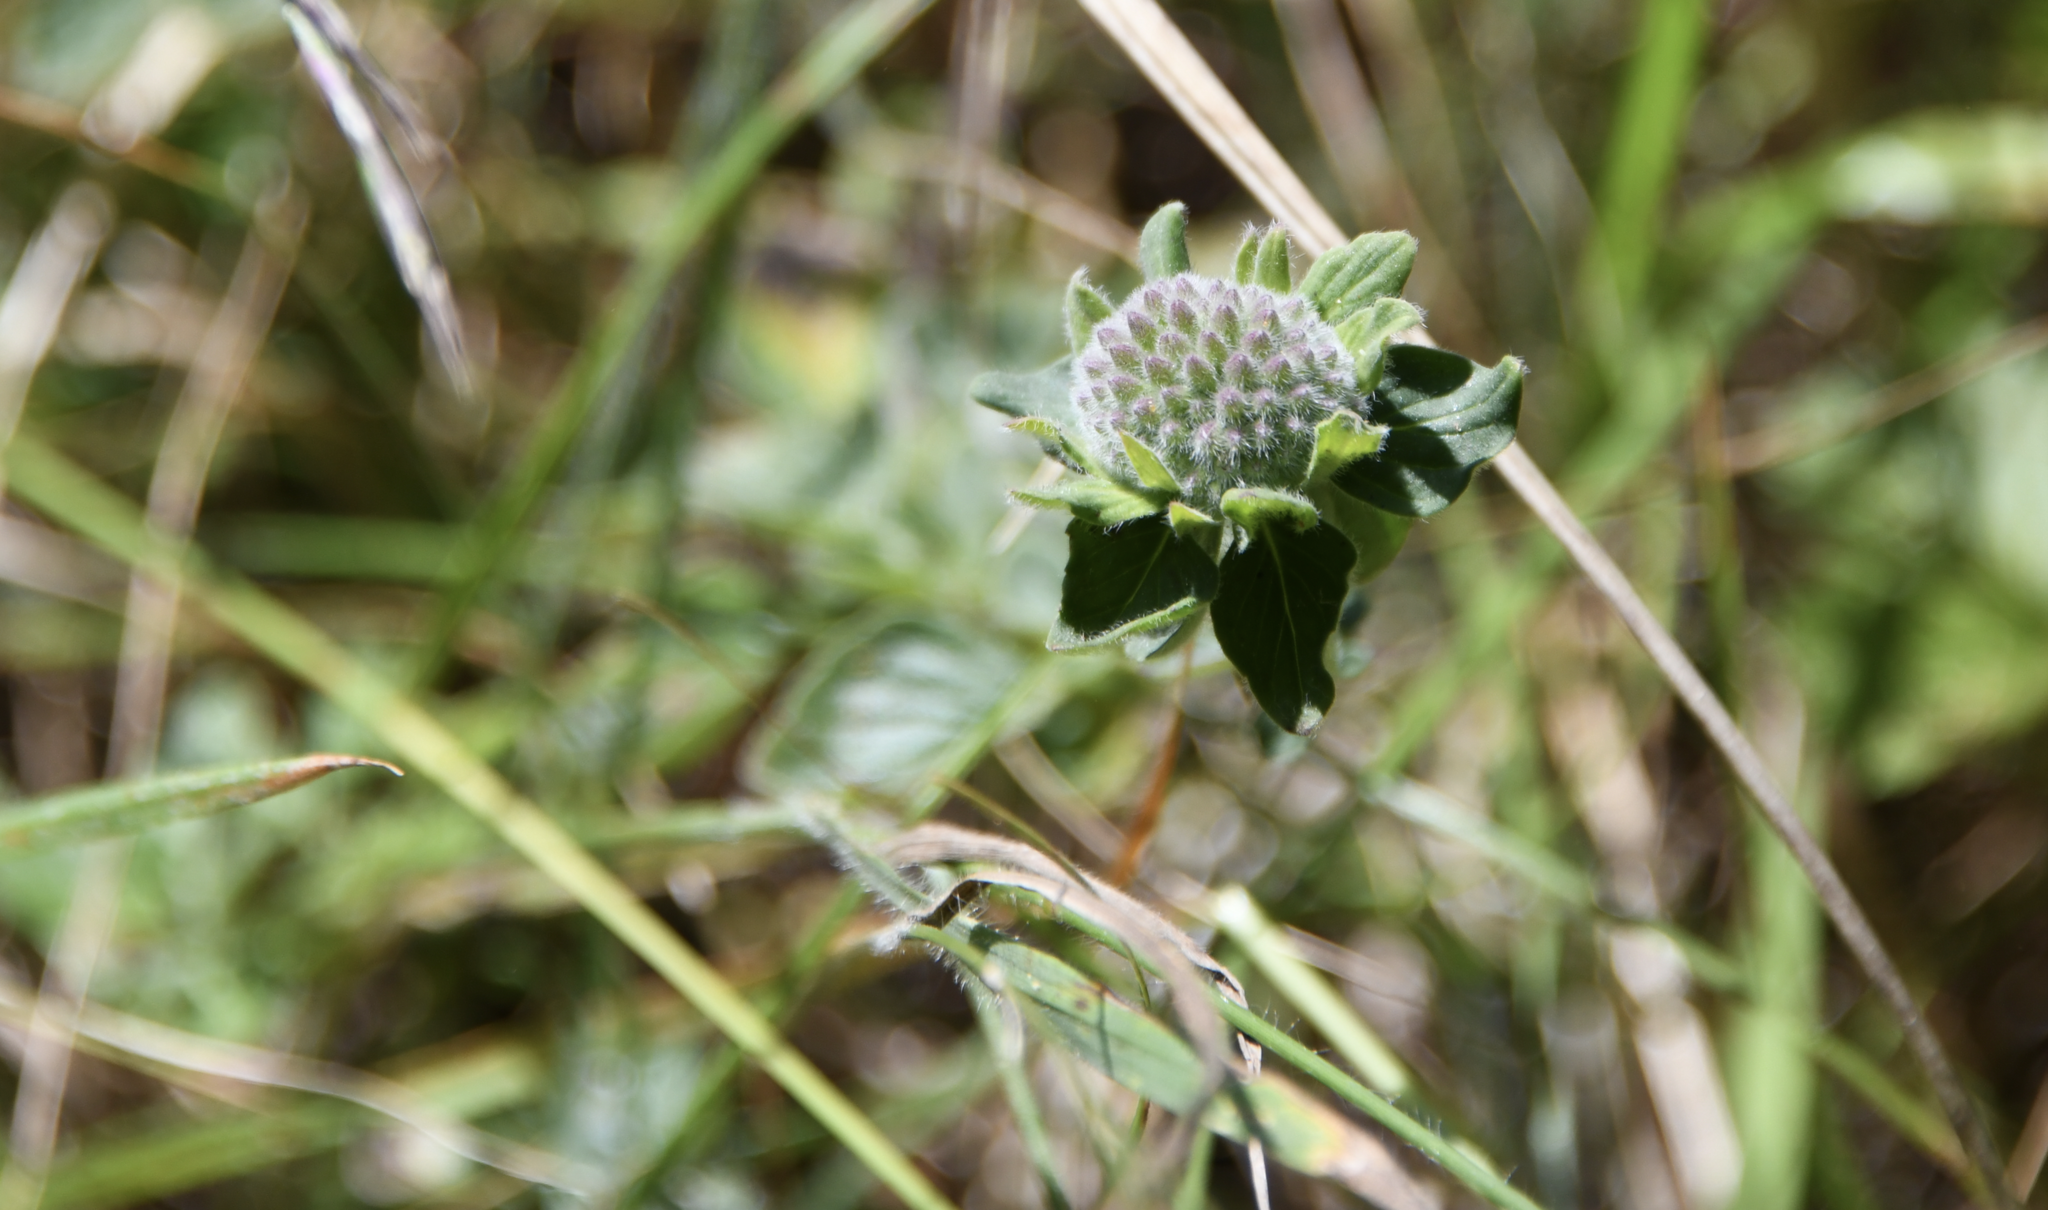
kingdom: Plantae
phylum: Tracheophyta
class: Magnoliopsida
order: Lamiales
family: Lamiaceae
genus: Monardella
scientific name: Monardella odoratissima
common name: Pacific monardella
